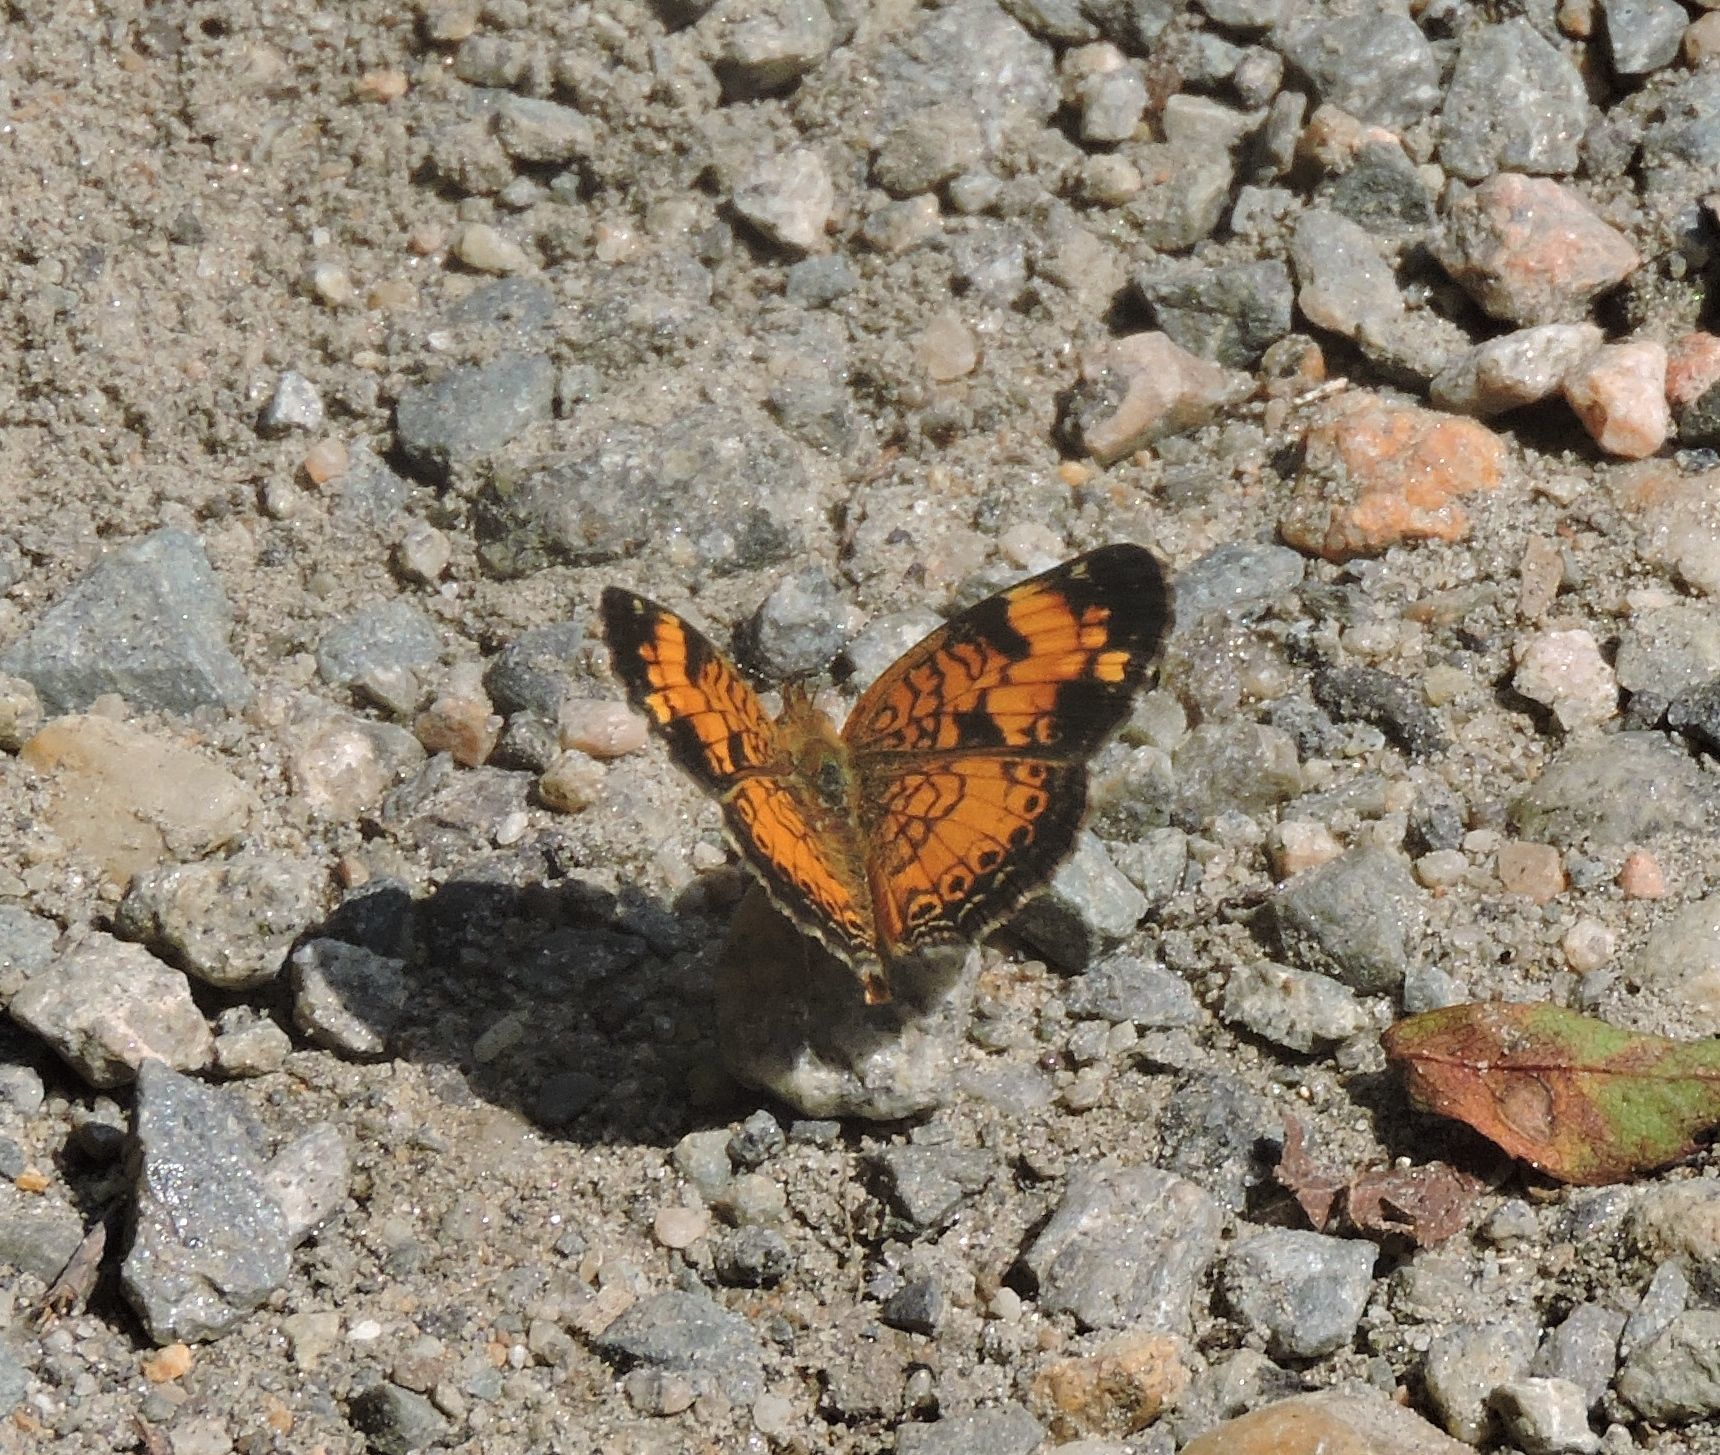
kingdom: Animalia
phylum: Arthropoda
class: Insecta
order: Lepidoptera
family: Nymphalidae
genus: Phyciodes
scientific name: Phyciodes tharos
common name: Pearl crescent
